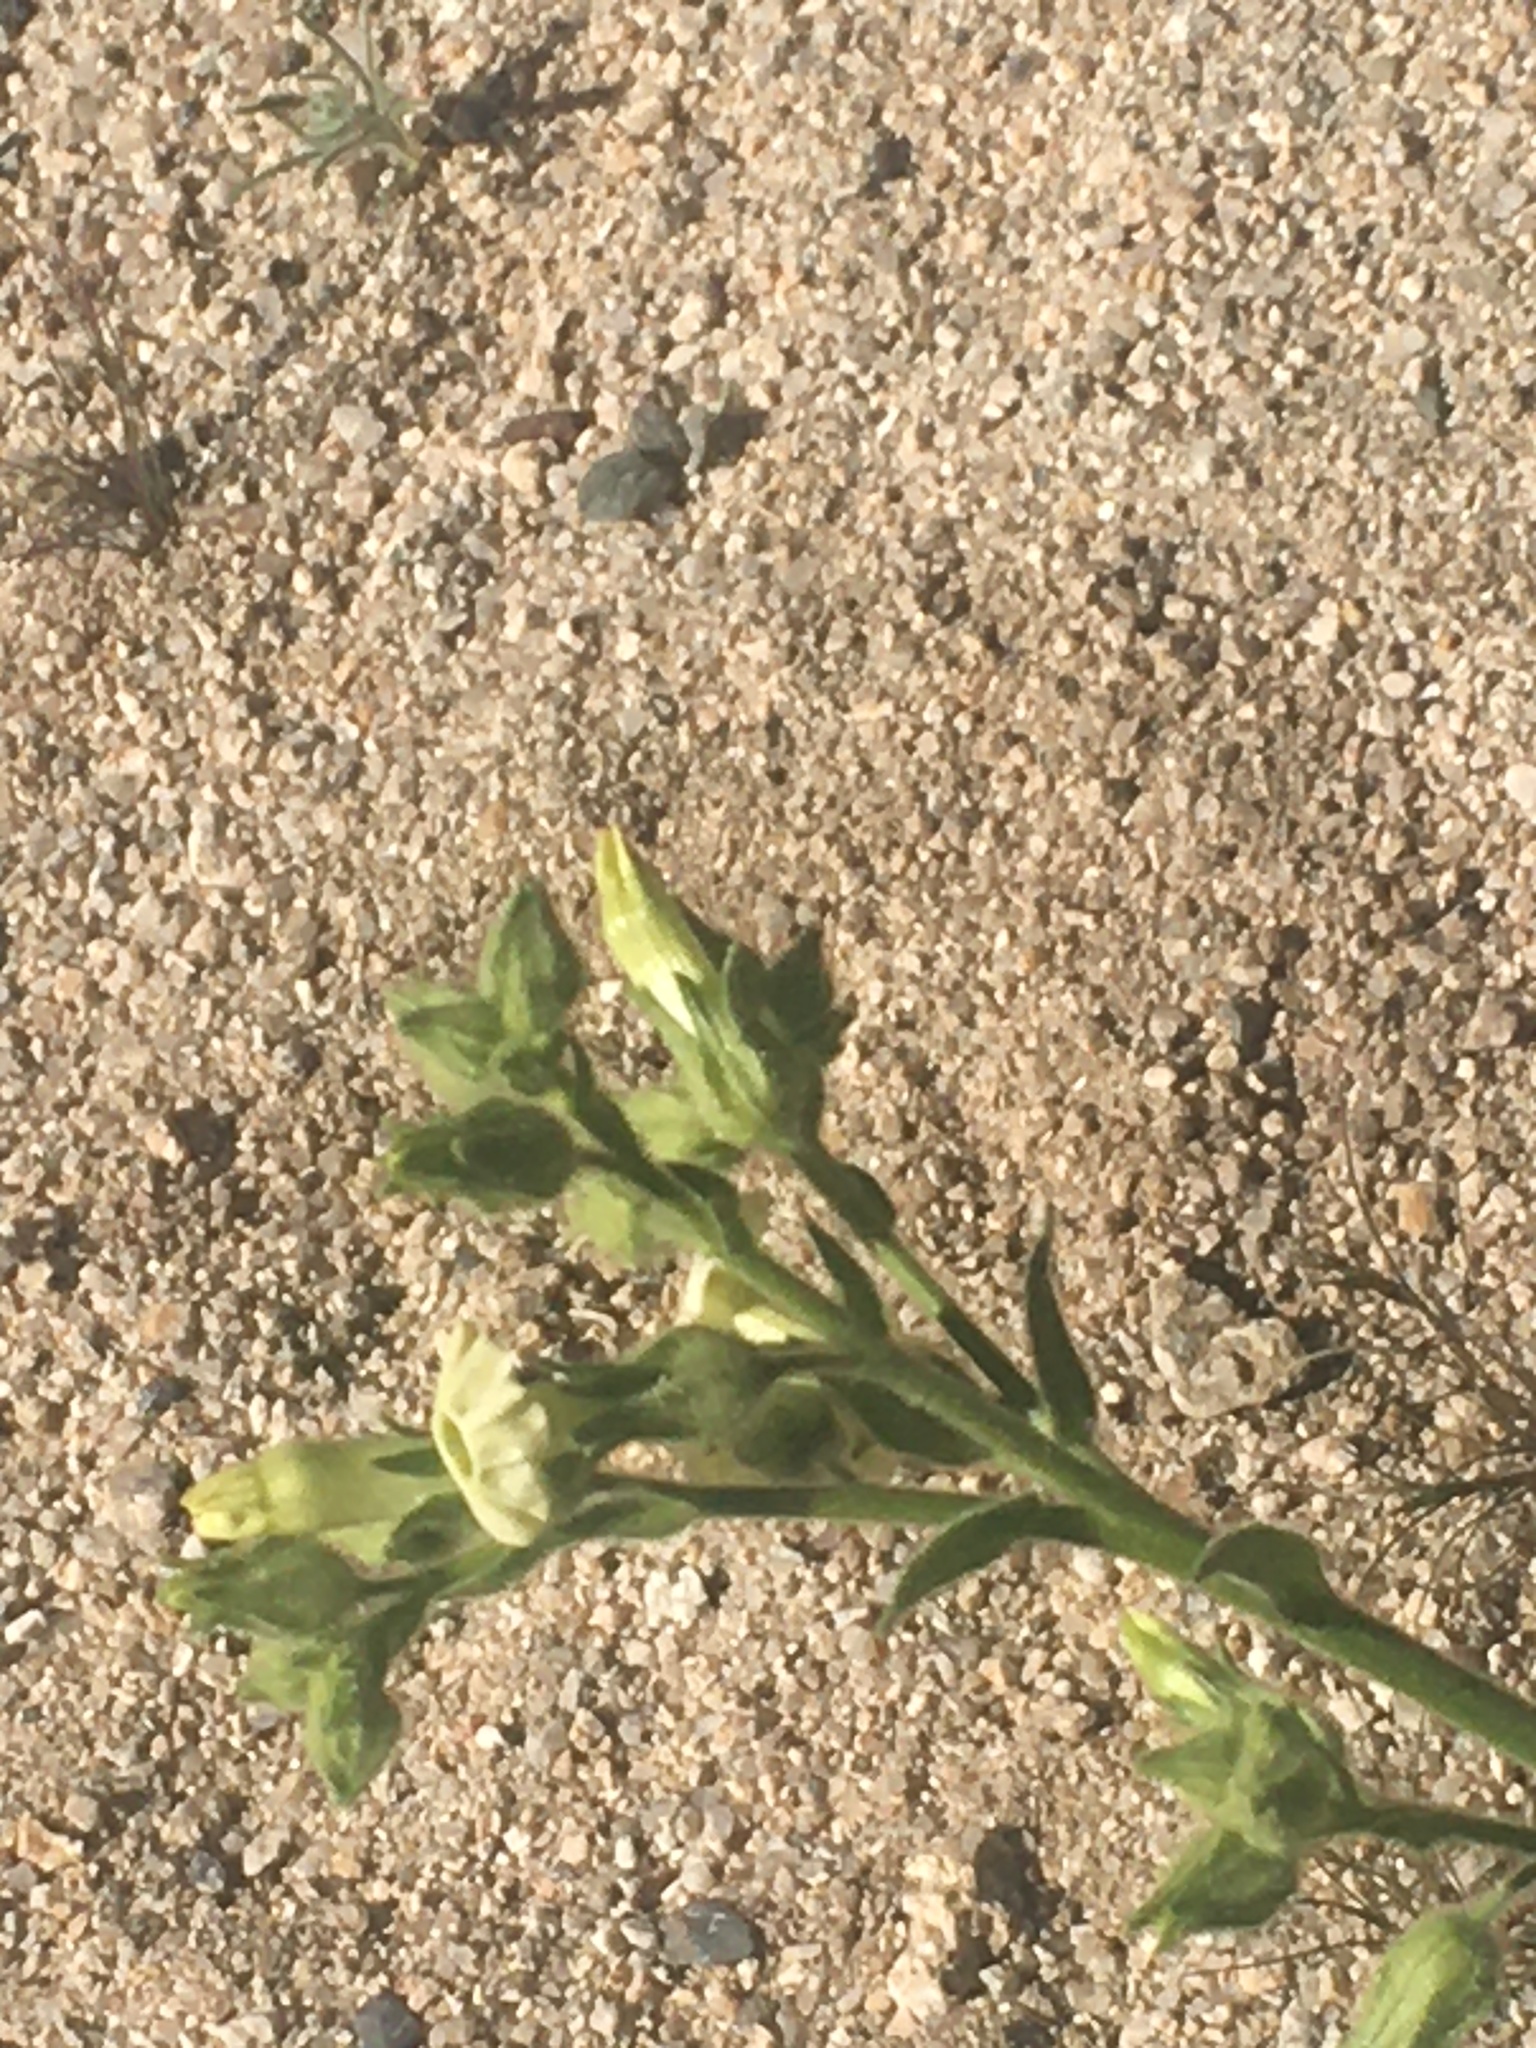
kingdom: Plantae
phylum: Tracheophyta
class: Magnoliopsida
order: Solanales
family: Solanaceae
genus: Nicotiana
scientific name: Nicotiana obtusifolia
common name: Desert tobacco
